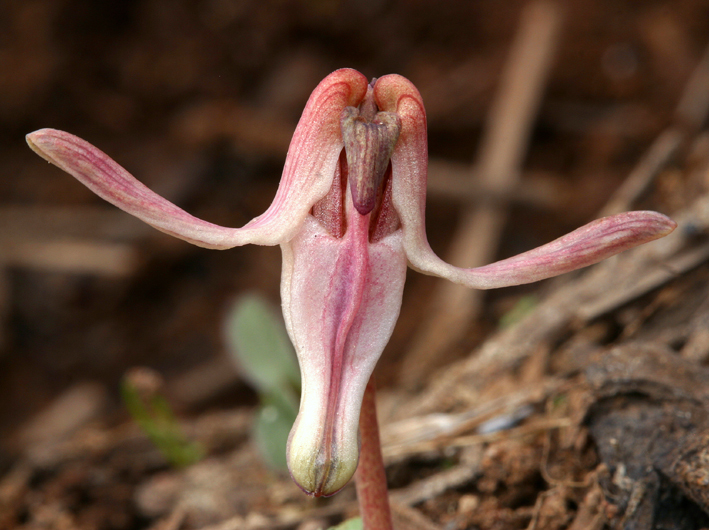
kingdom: Plantae
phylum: Tracheophyta
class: Magnoliopsida
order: Ranunculales
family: Papaveraceae
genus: Dicentra
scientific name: Dicentra uniflora
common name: Steer's-head
